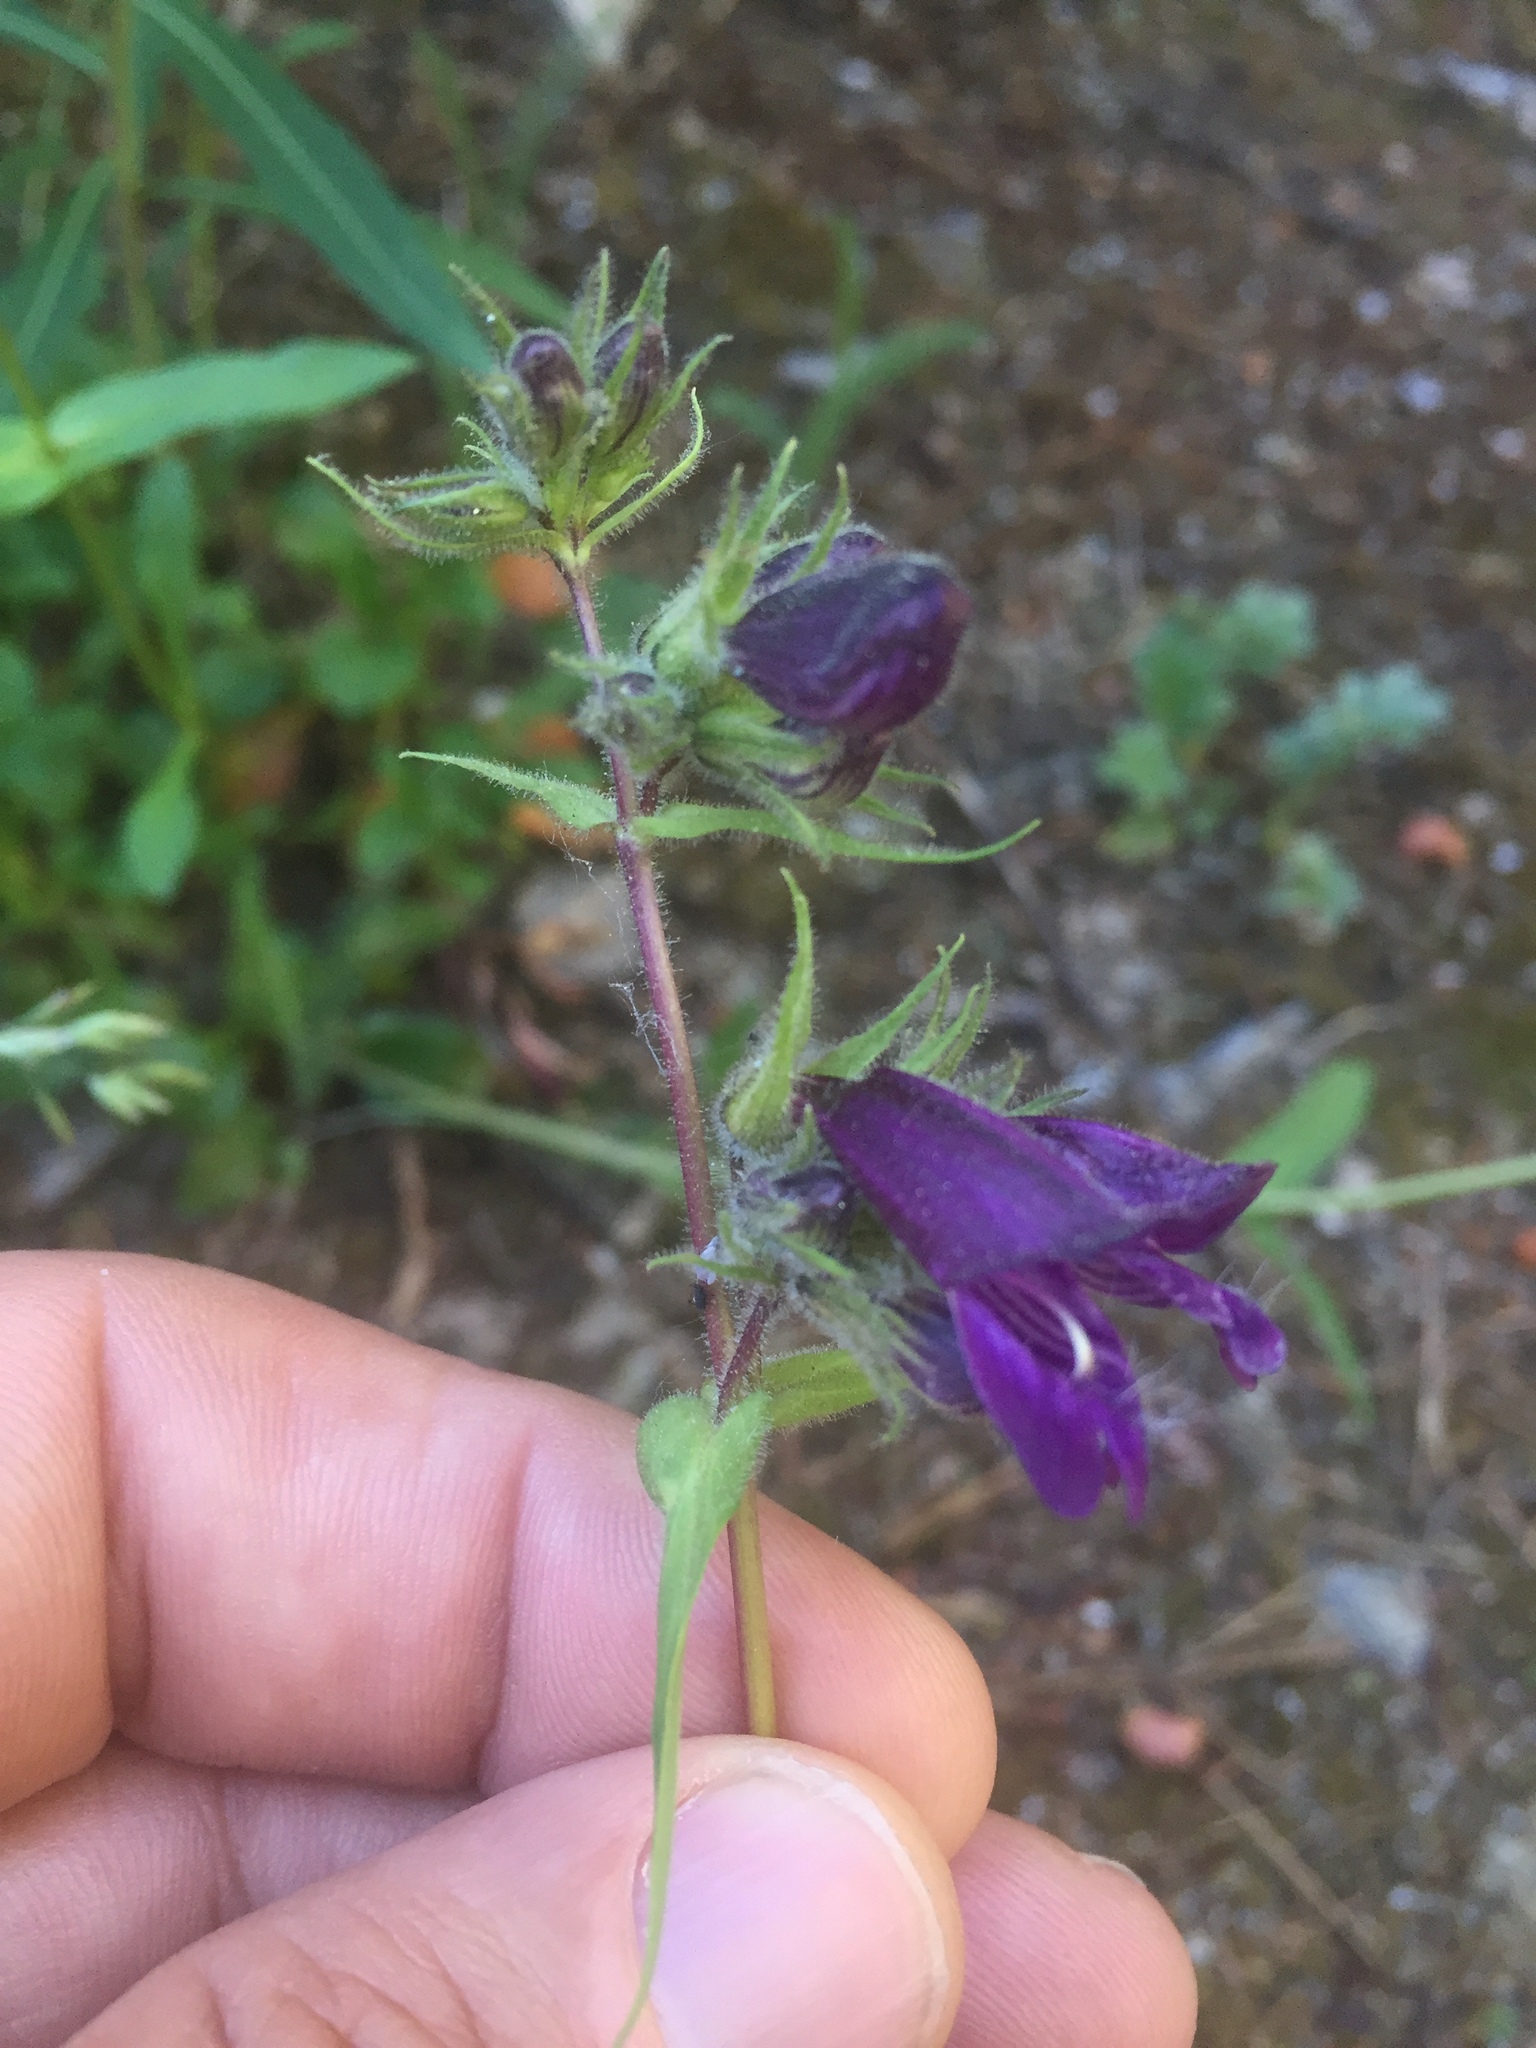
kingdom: Plantae
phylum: Tracheophyta
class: Magnoliopsida
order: Lamiales
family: Plantaginaceae
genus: Penstemon
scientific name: Penstemon whippleanus
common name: Whipple's penstemon
